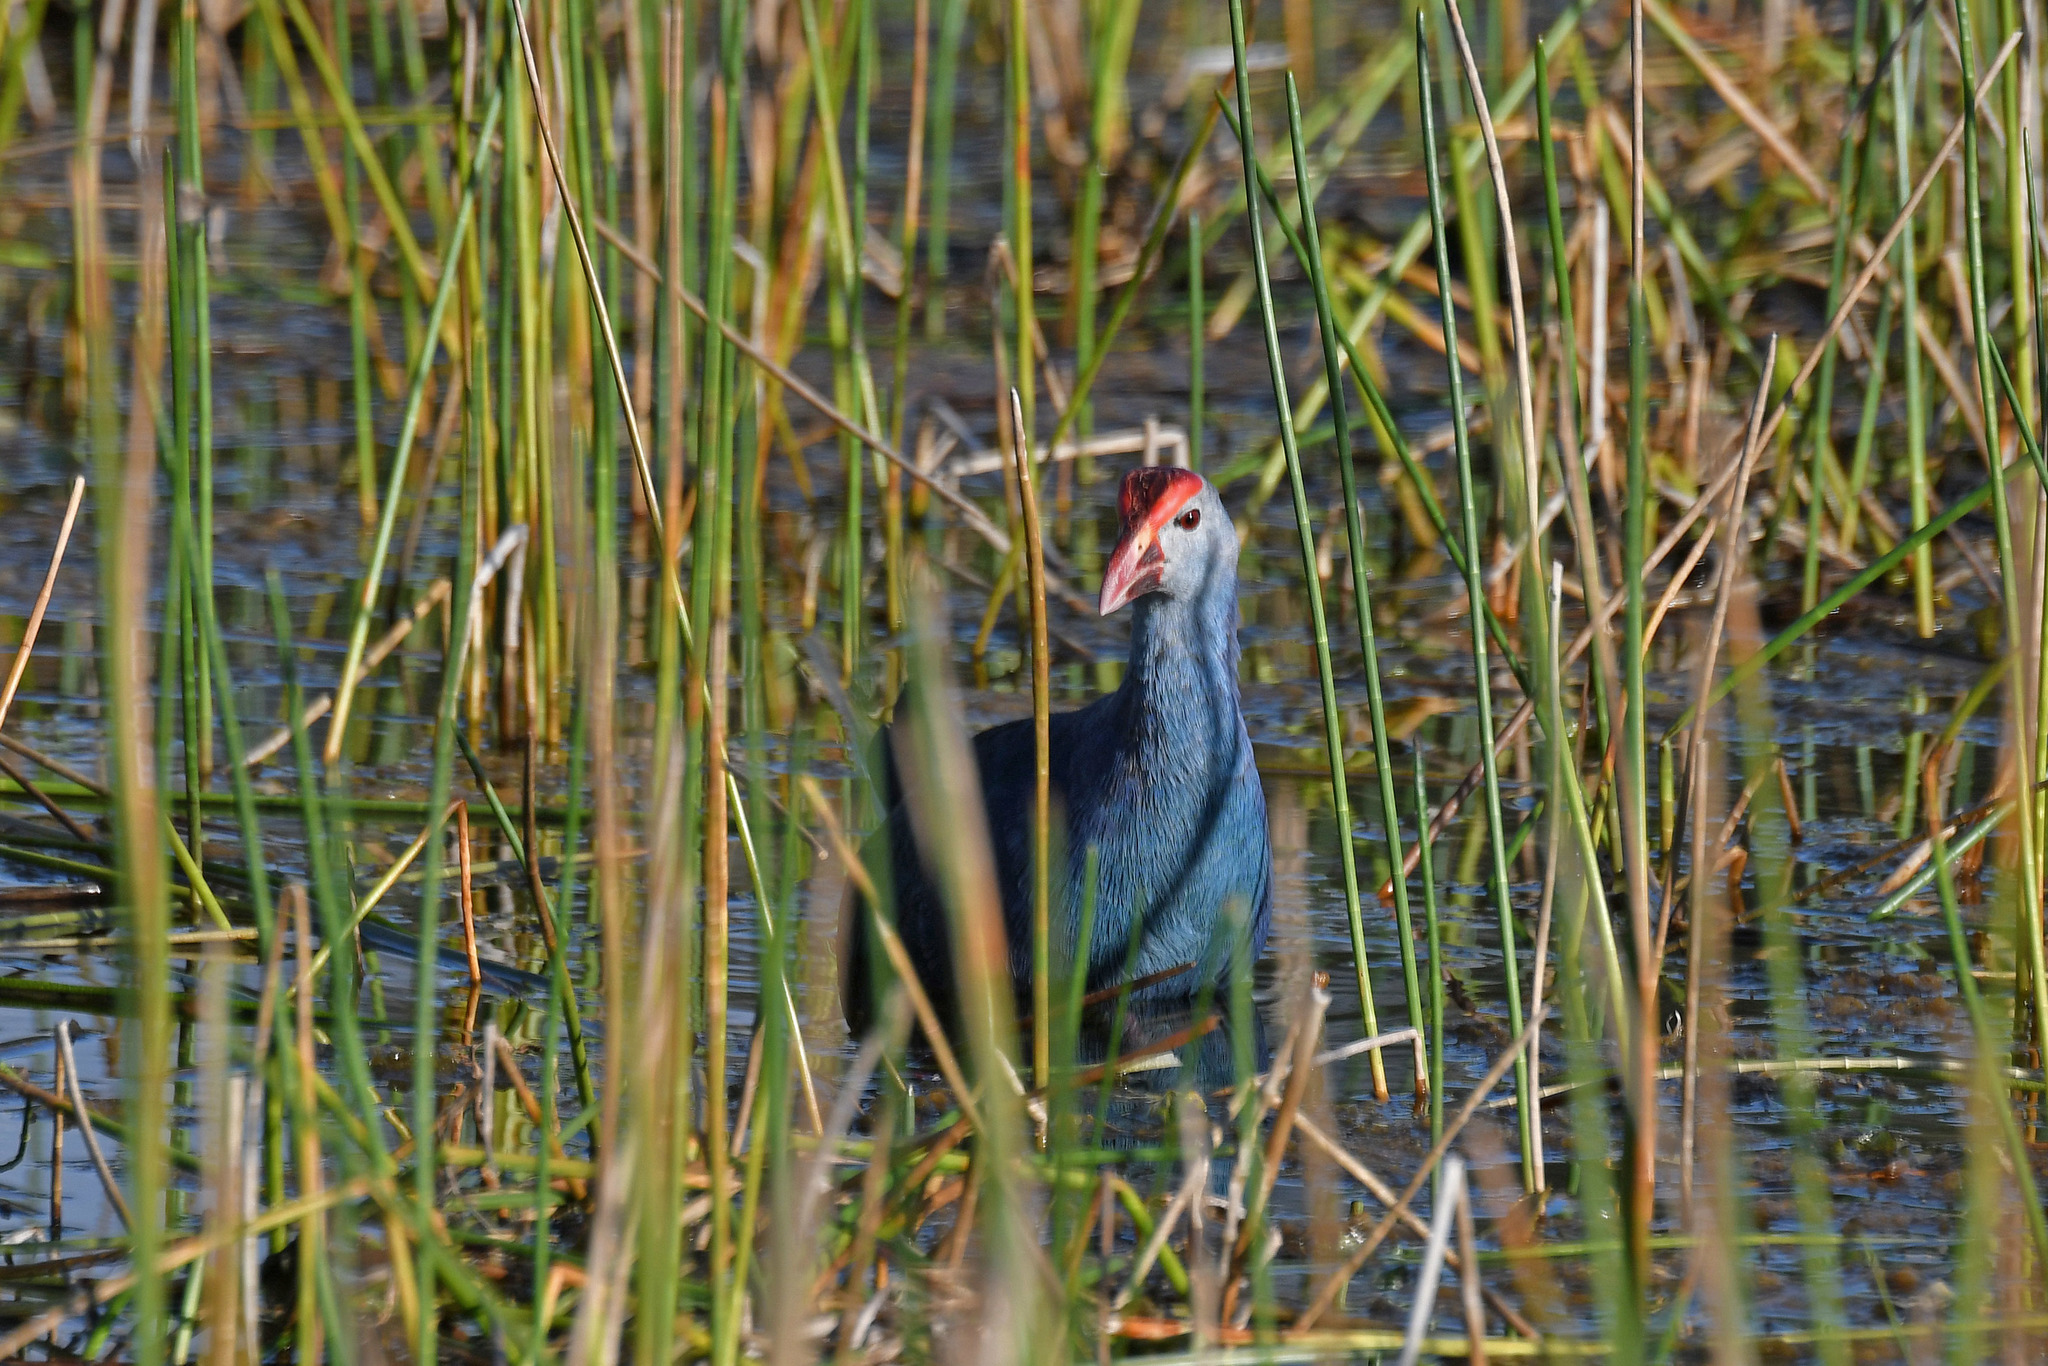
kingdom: Animalia
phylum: Chordata
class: Aves
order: Gruiformes
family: Rallidae
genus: Porphyrio
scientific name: Porphyrio porphyrio
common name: Purple swamphen
